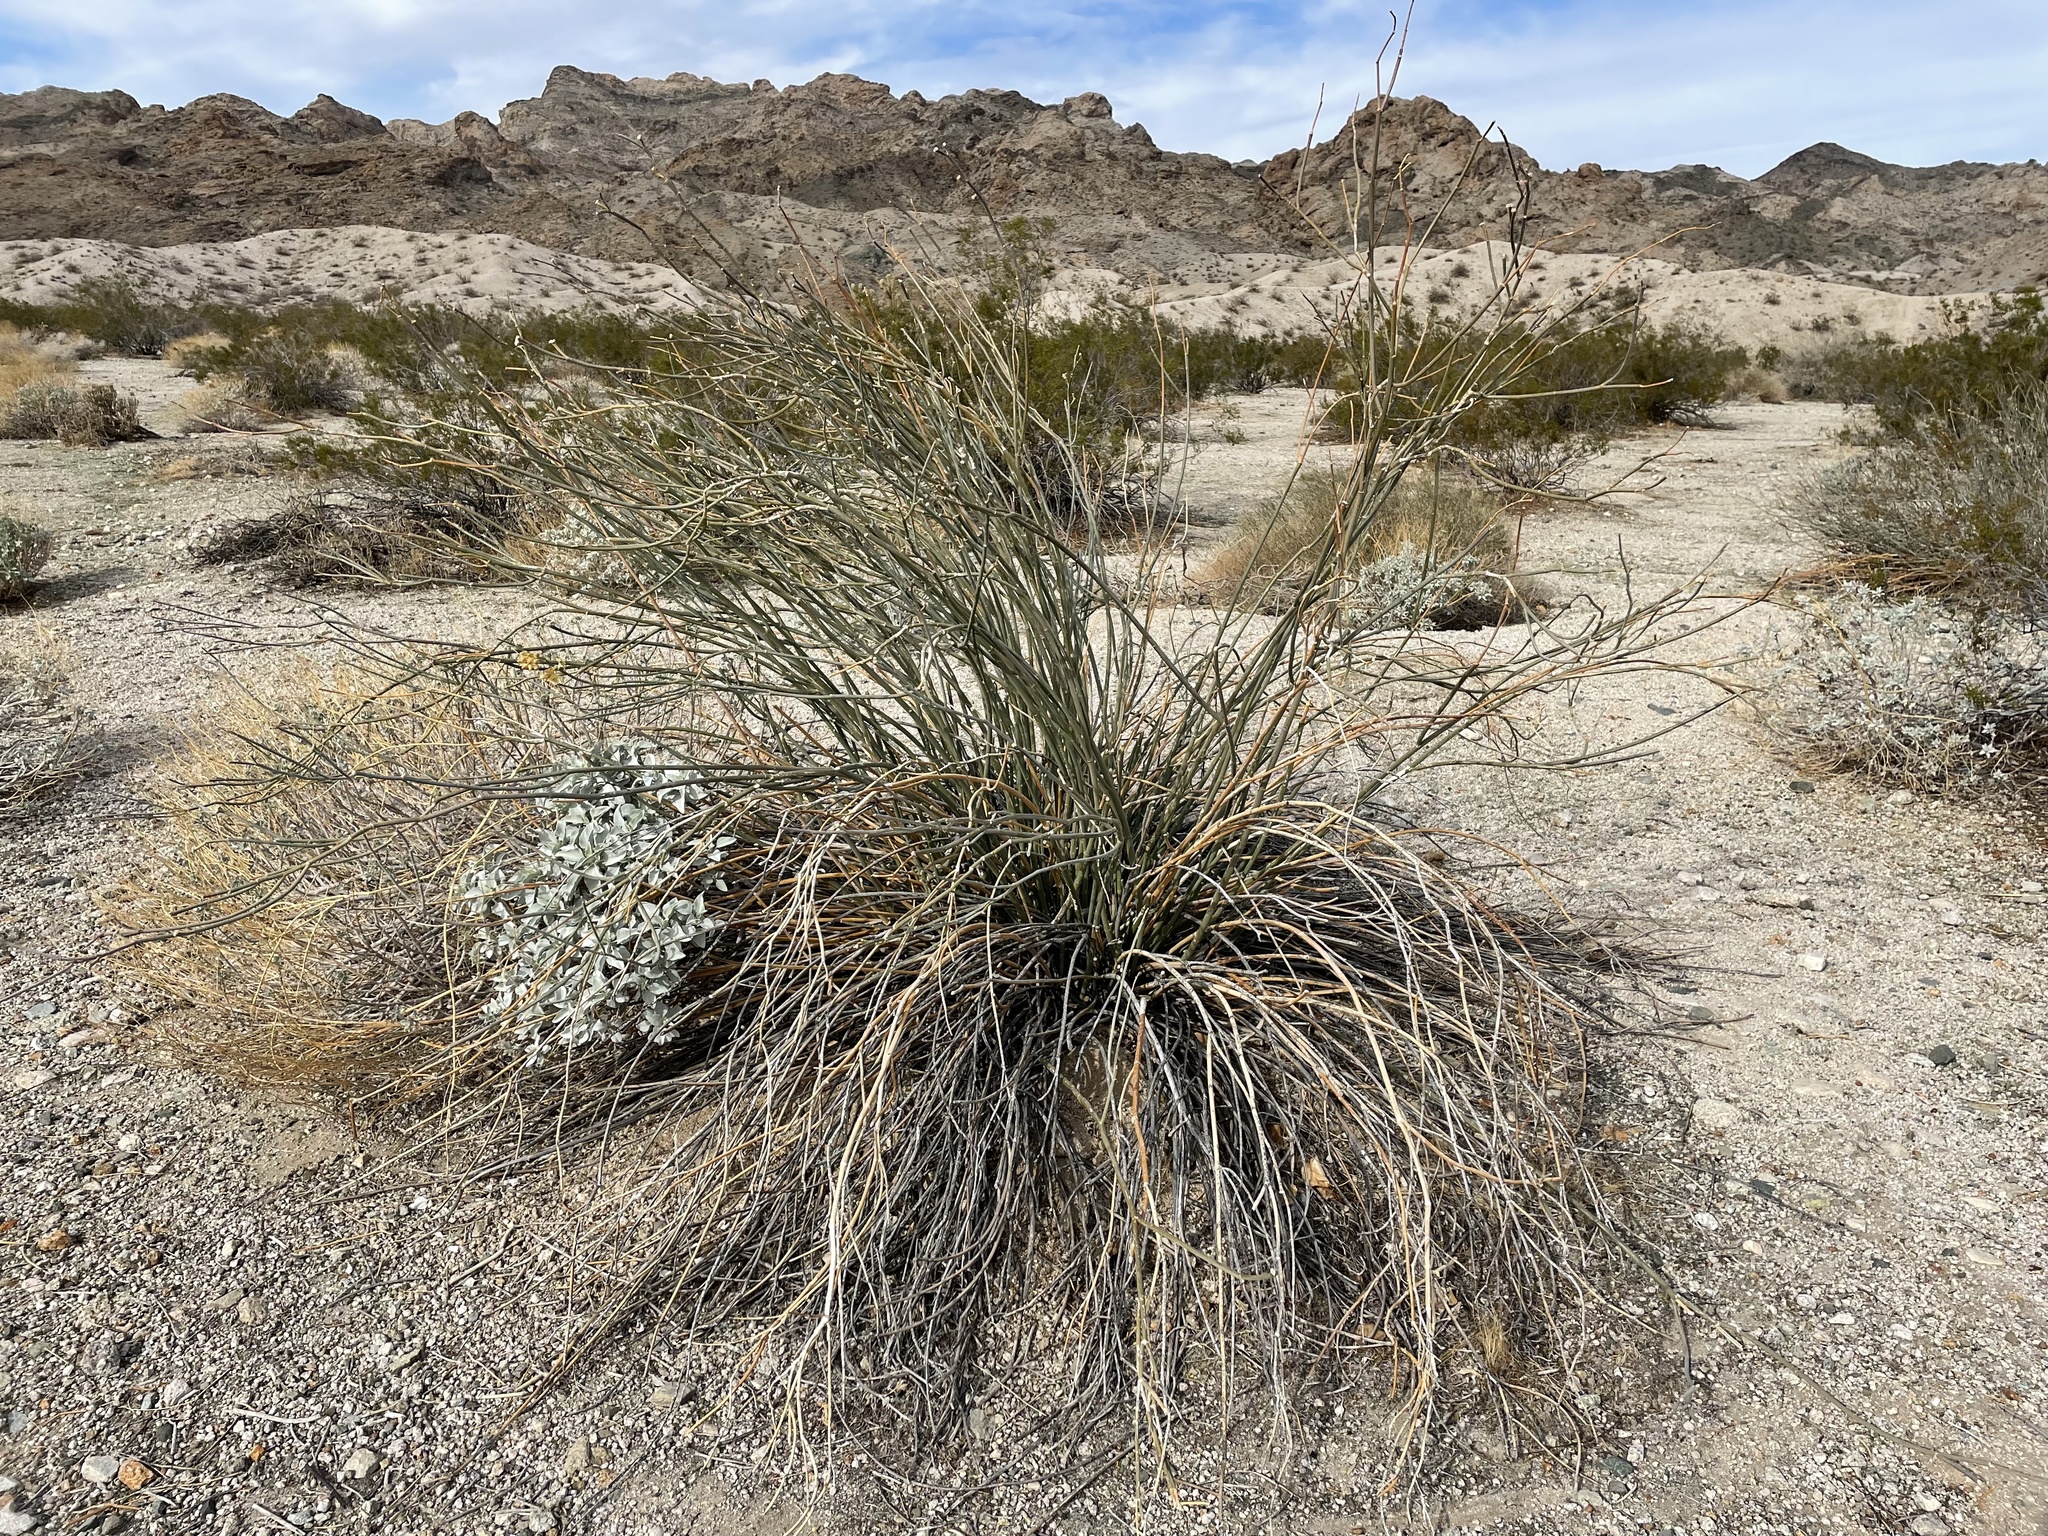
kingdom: Plantae
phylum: Tracheophyta
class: Magnoliopsida
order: Gentianales
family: Apocynaceae
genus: Asclepias
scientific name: Asclepias subulata
